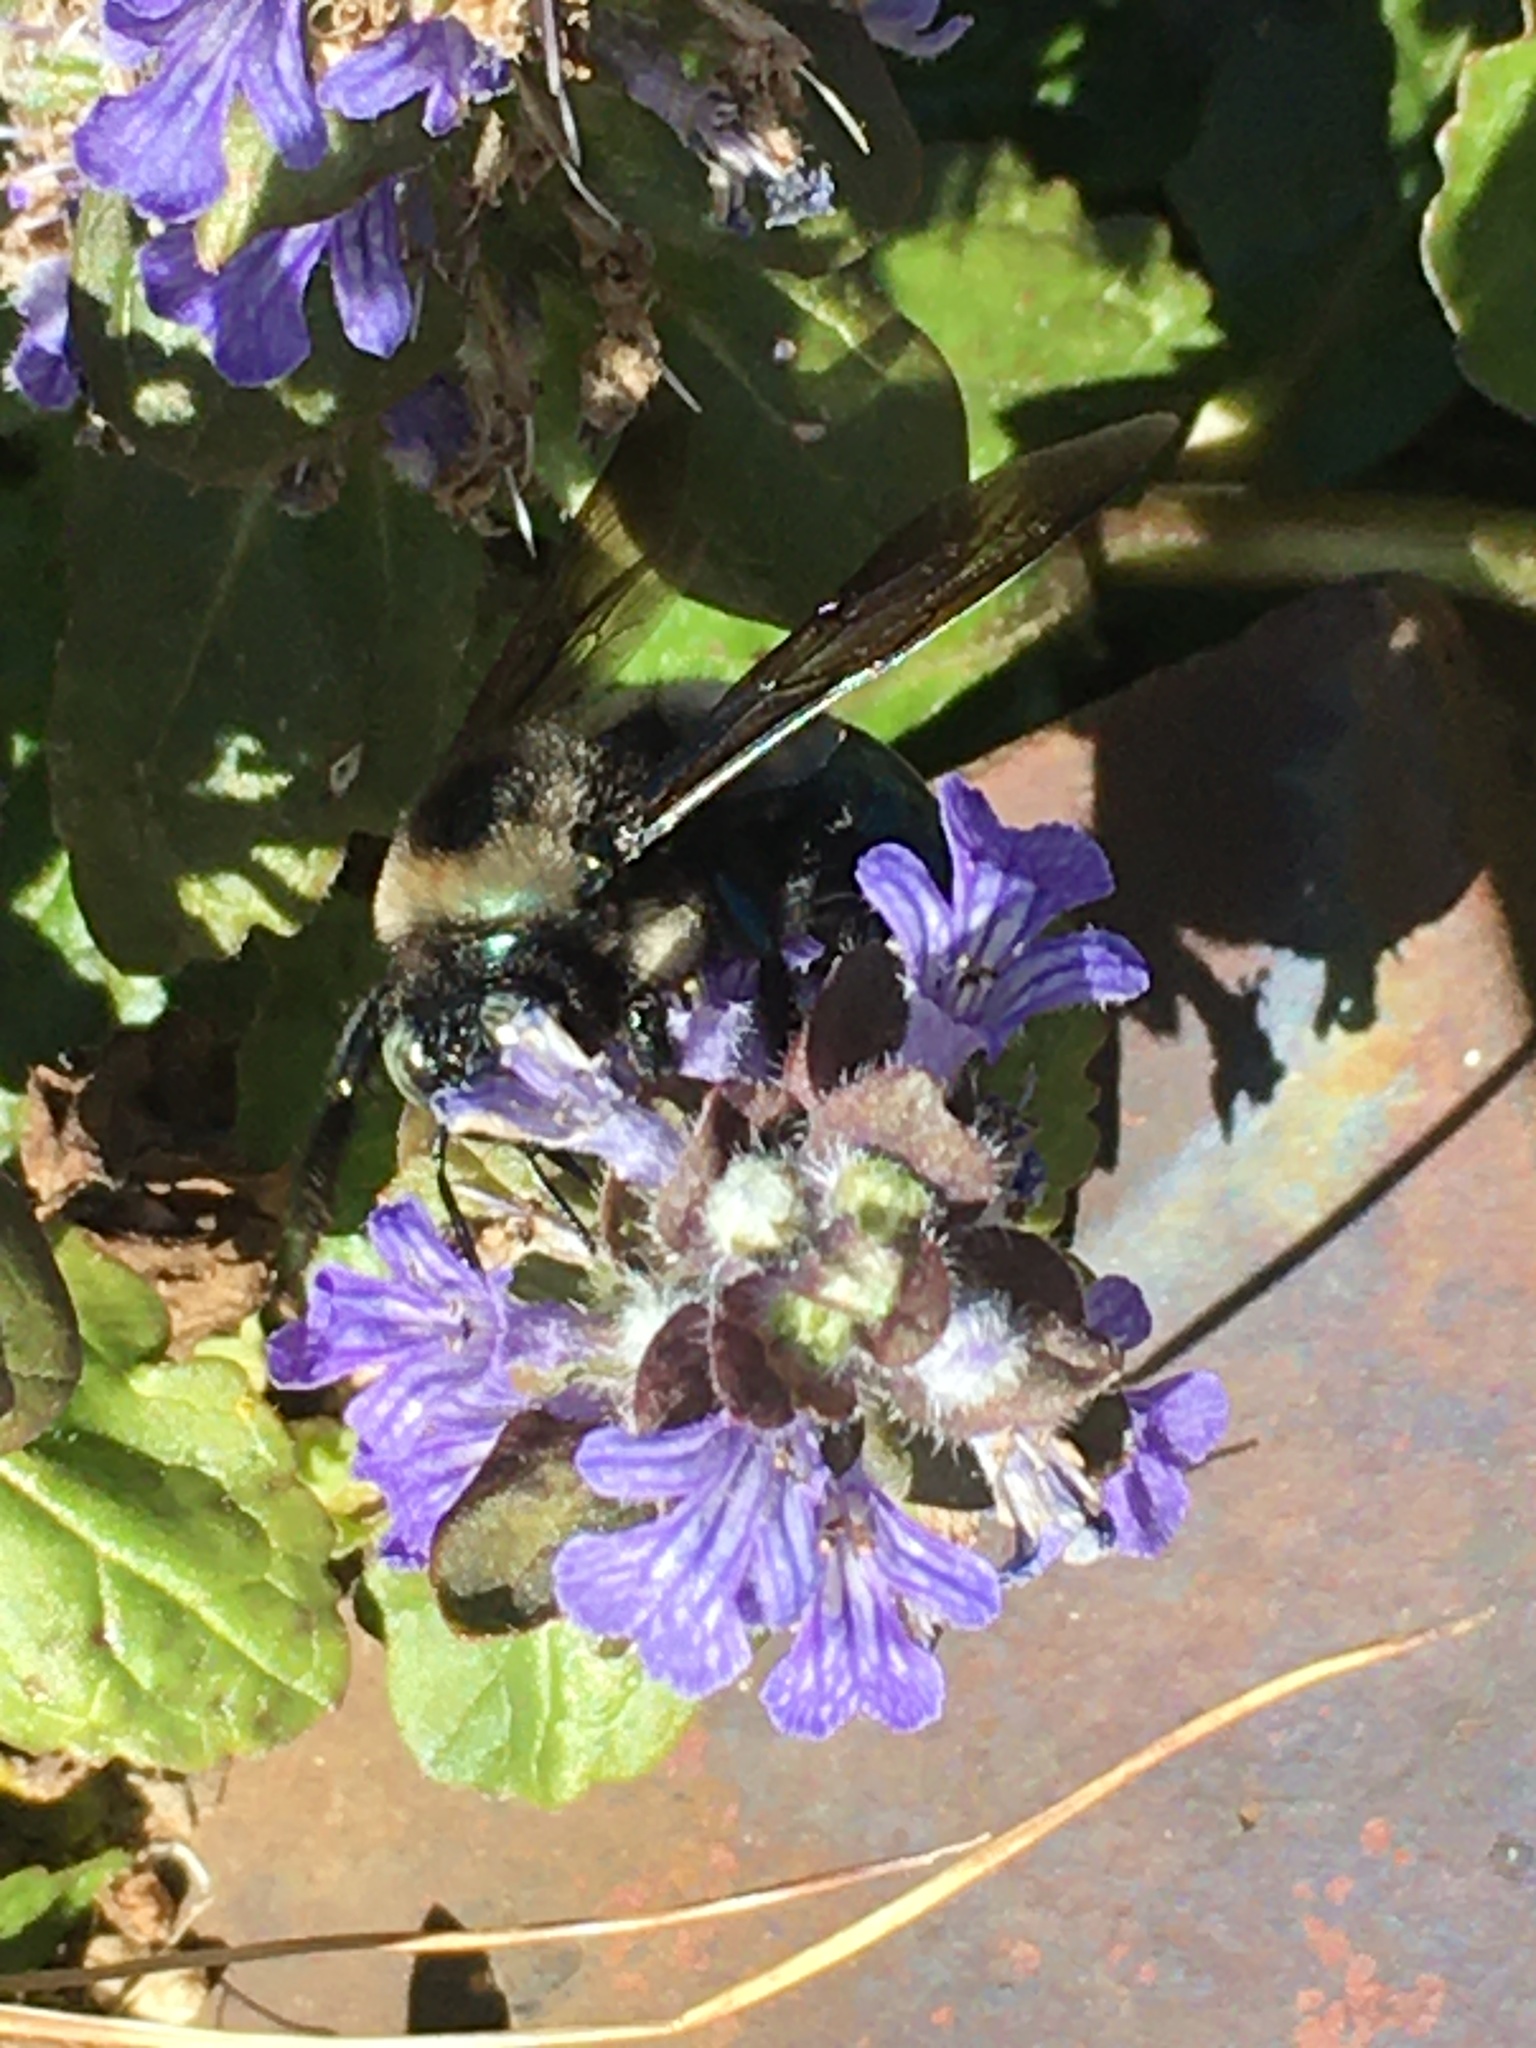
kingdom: Animalia
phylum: Arthropoda
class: Insecta
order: Hymenoptera
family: Apidae
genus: Xylocopa
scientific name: Xylocopa californica
